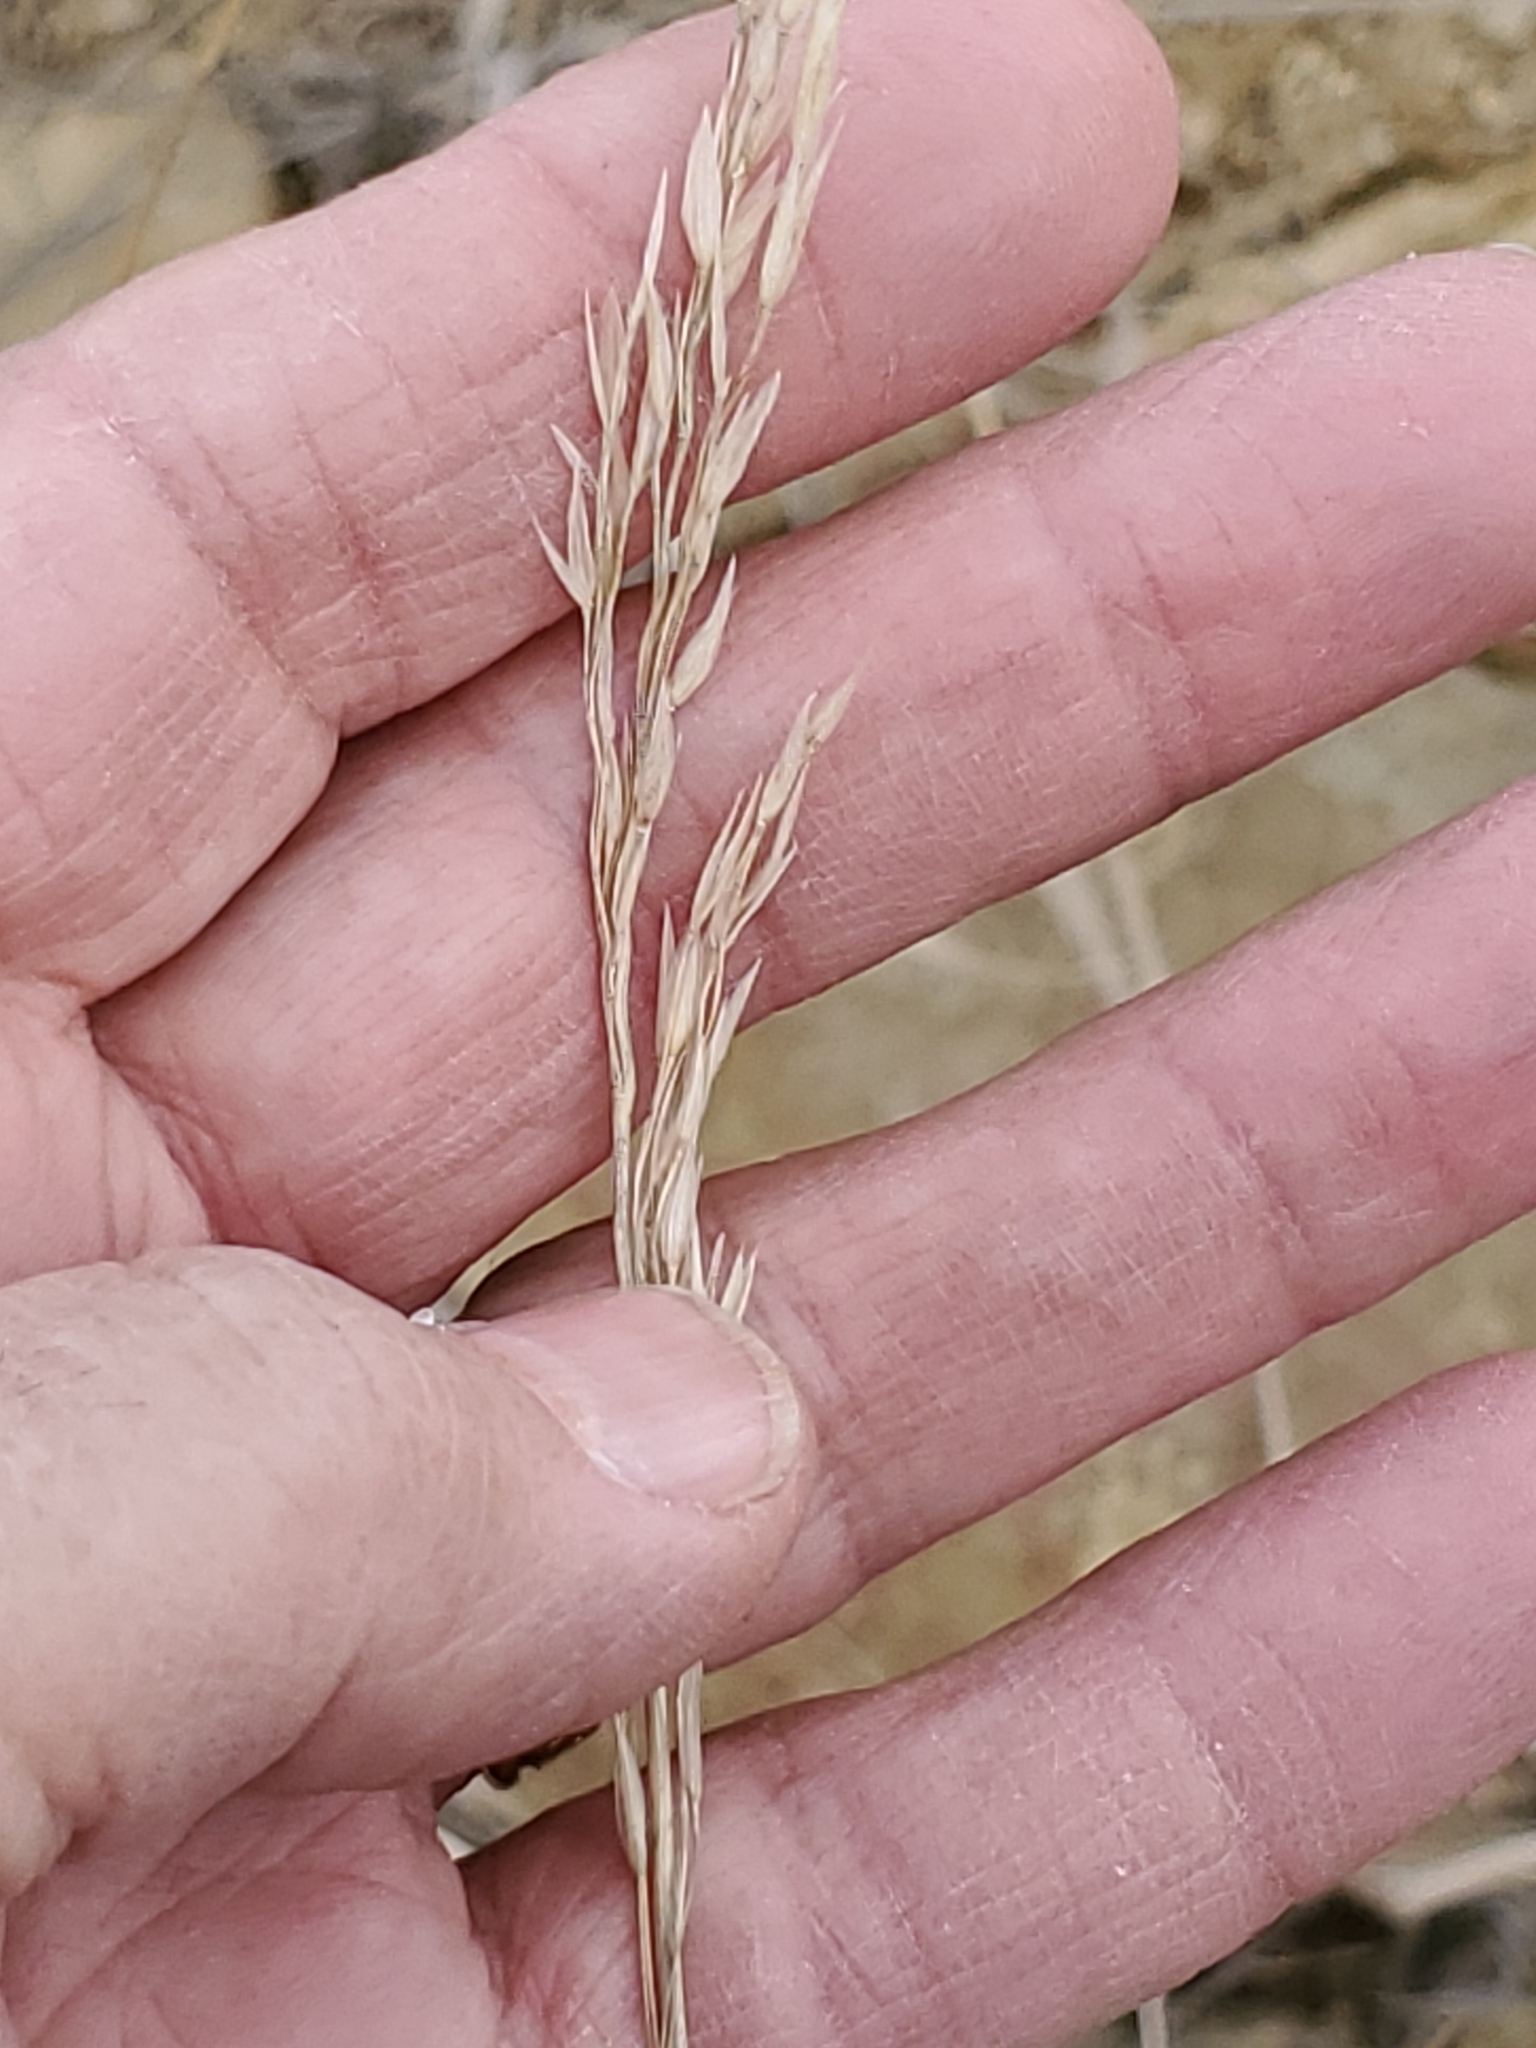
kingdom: Plantae
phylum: Tracheophyta
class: Liliopsida
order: Poales
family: Poaceae
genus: Bromus
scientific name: Bromus inermis
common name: Smooth brome
